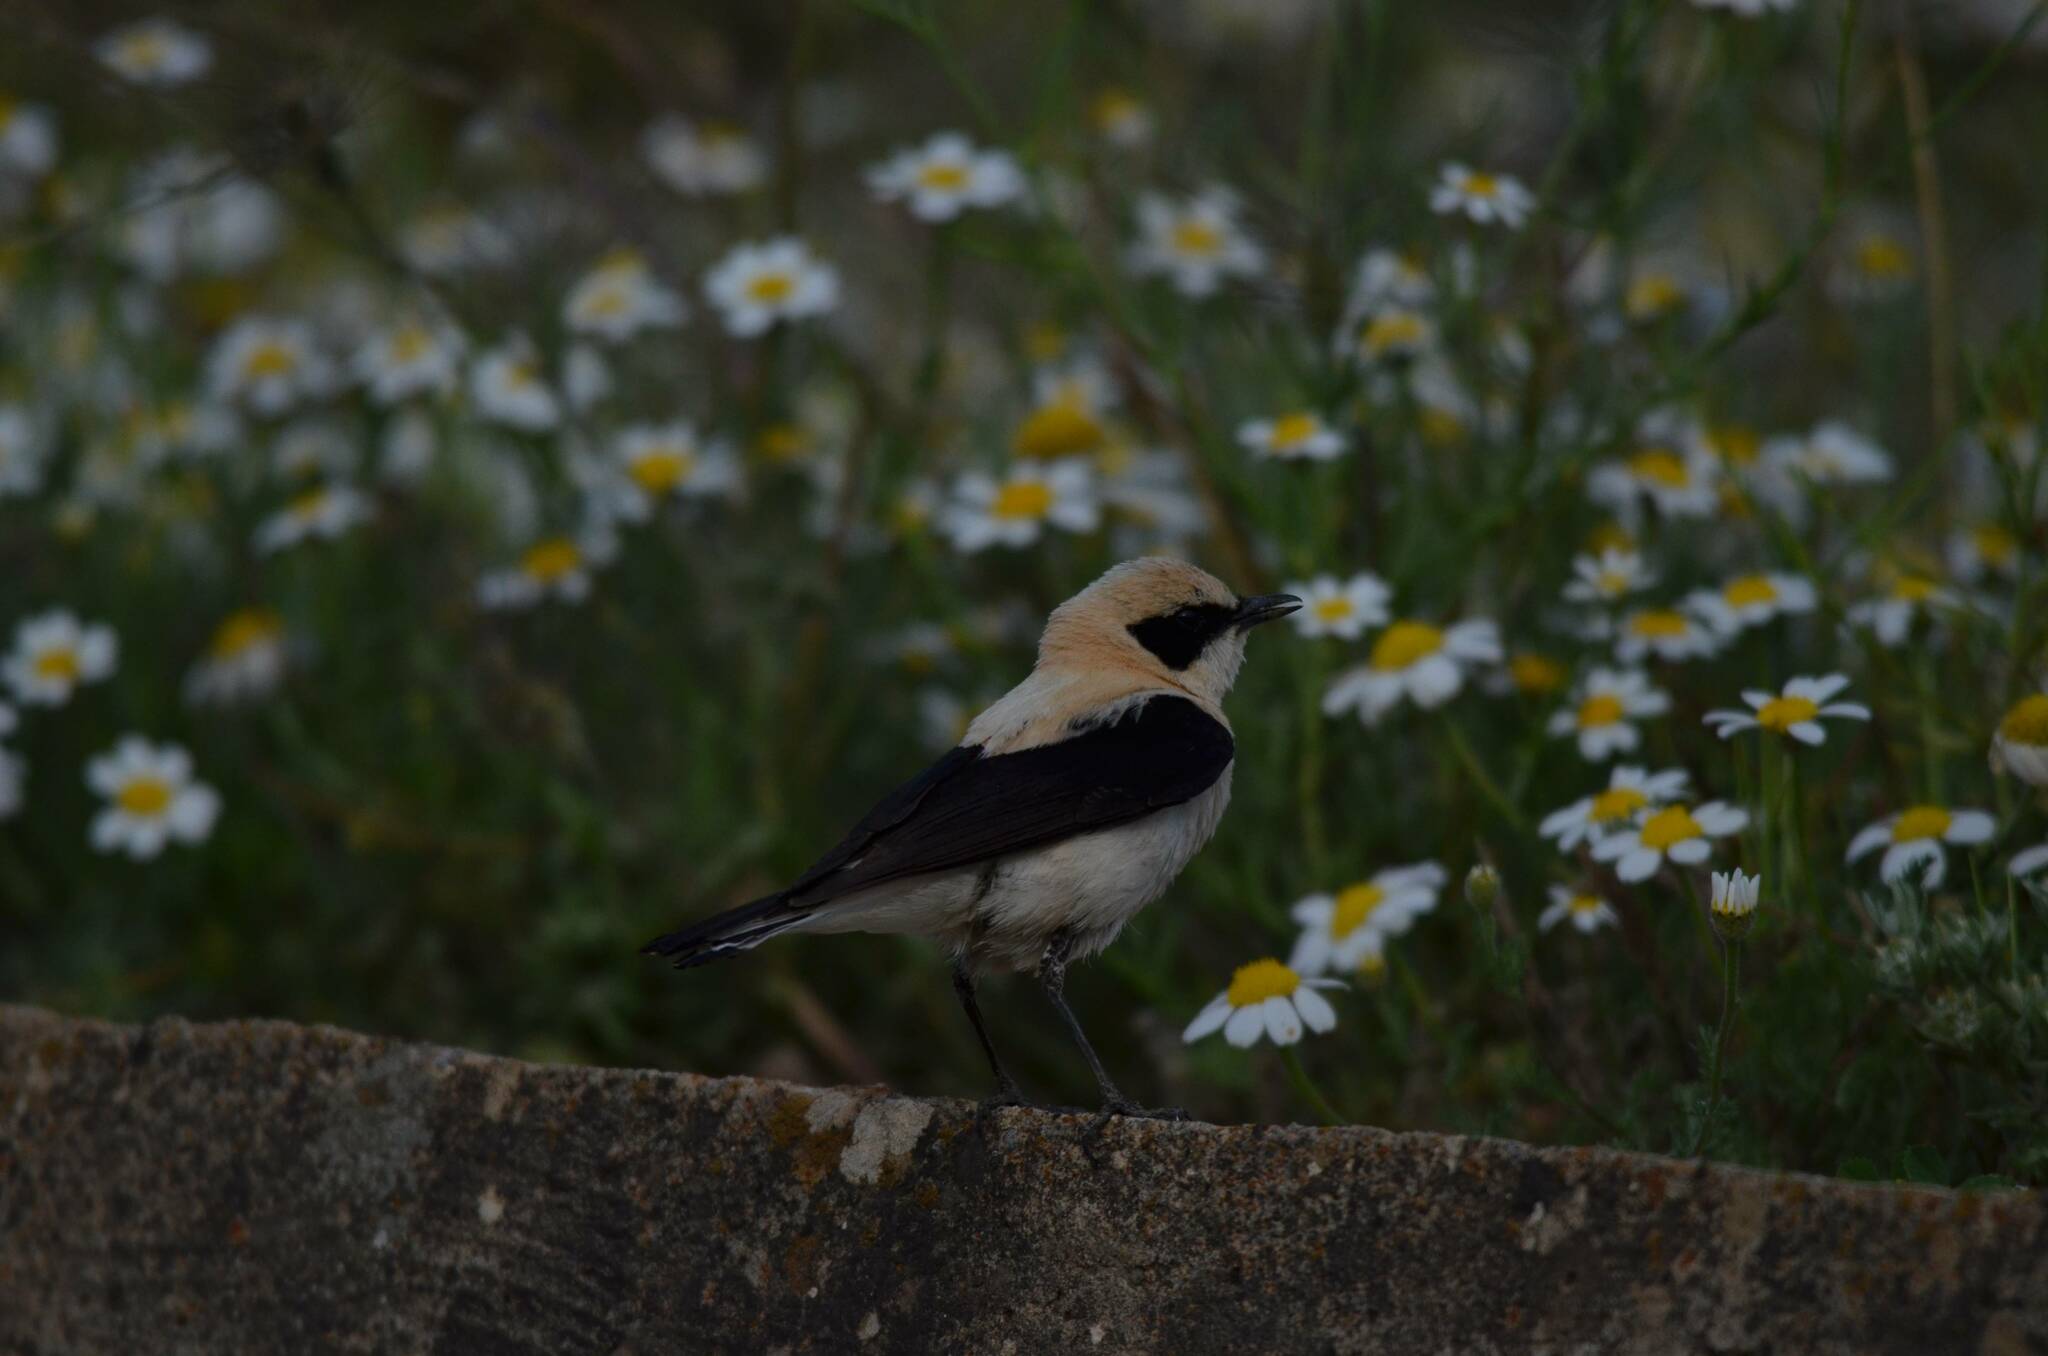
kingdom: Animalia
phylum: Chordata
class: Aves
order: Passeriformes
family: Muscicapidae
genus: Oenanthe
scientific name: Oenanthe hispanica
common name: Black-eared wheatear
